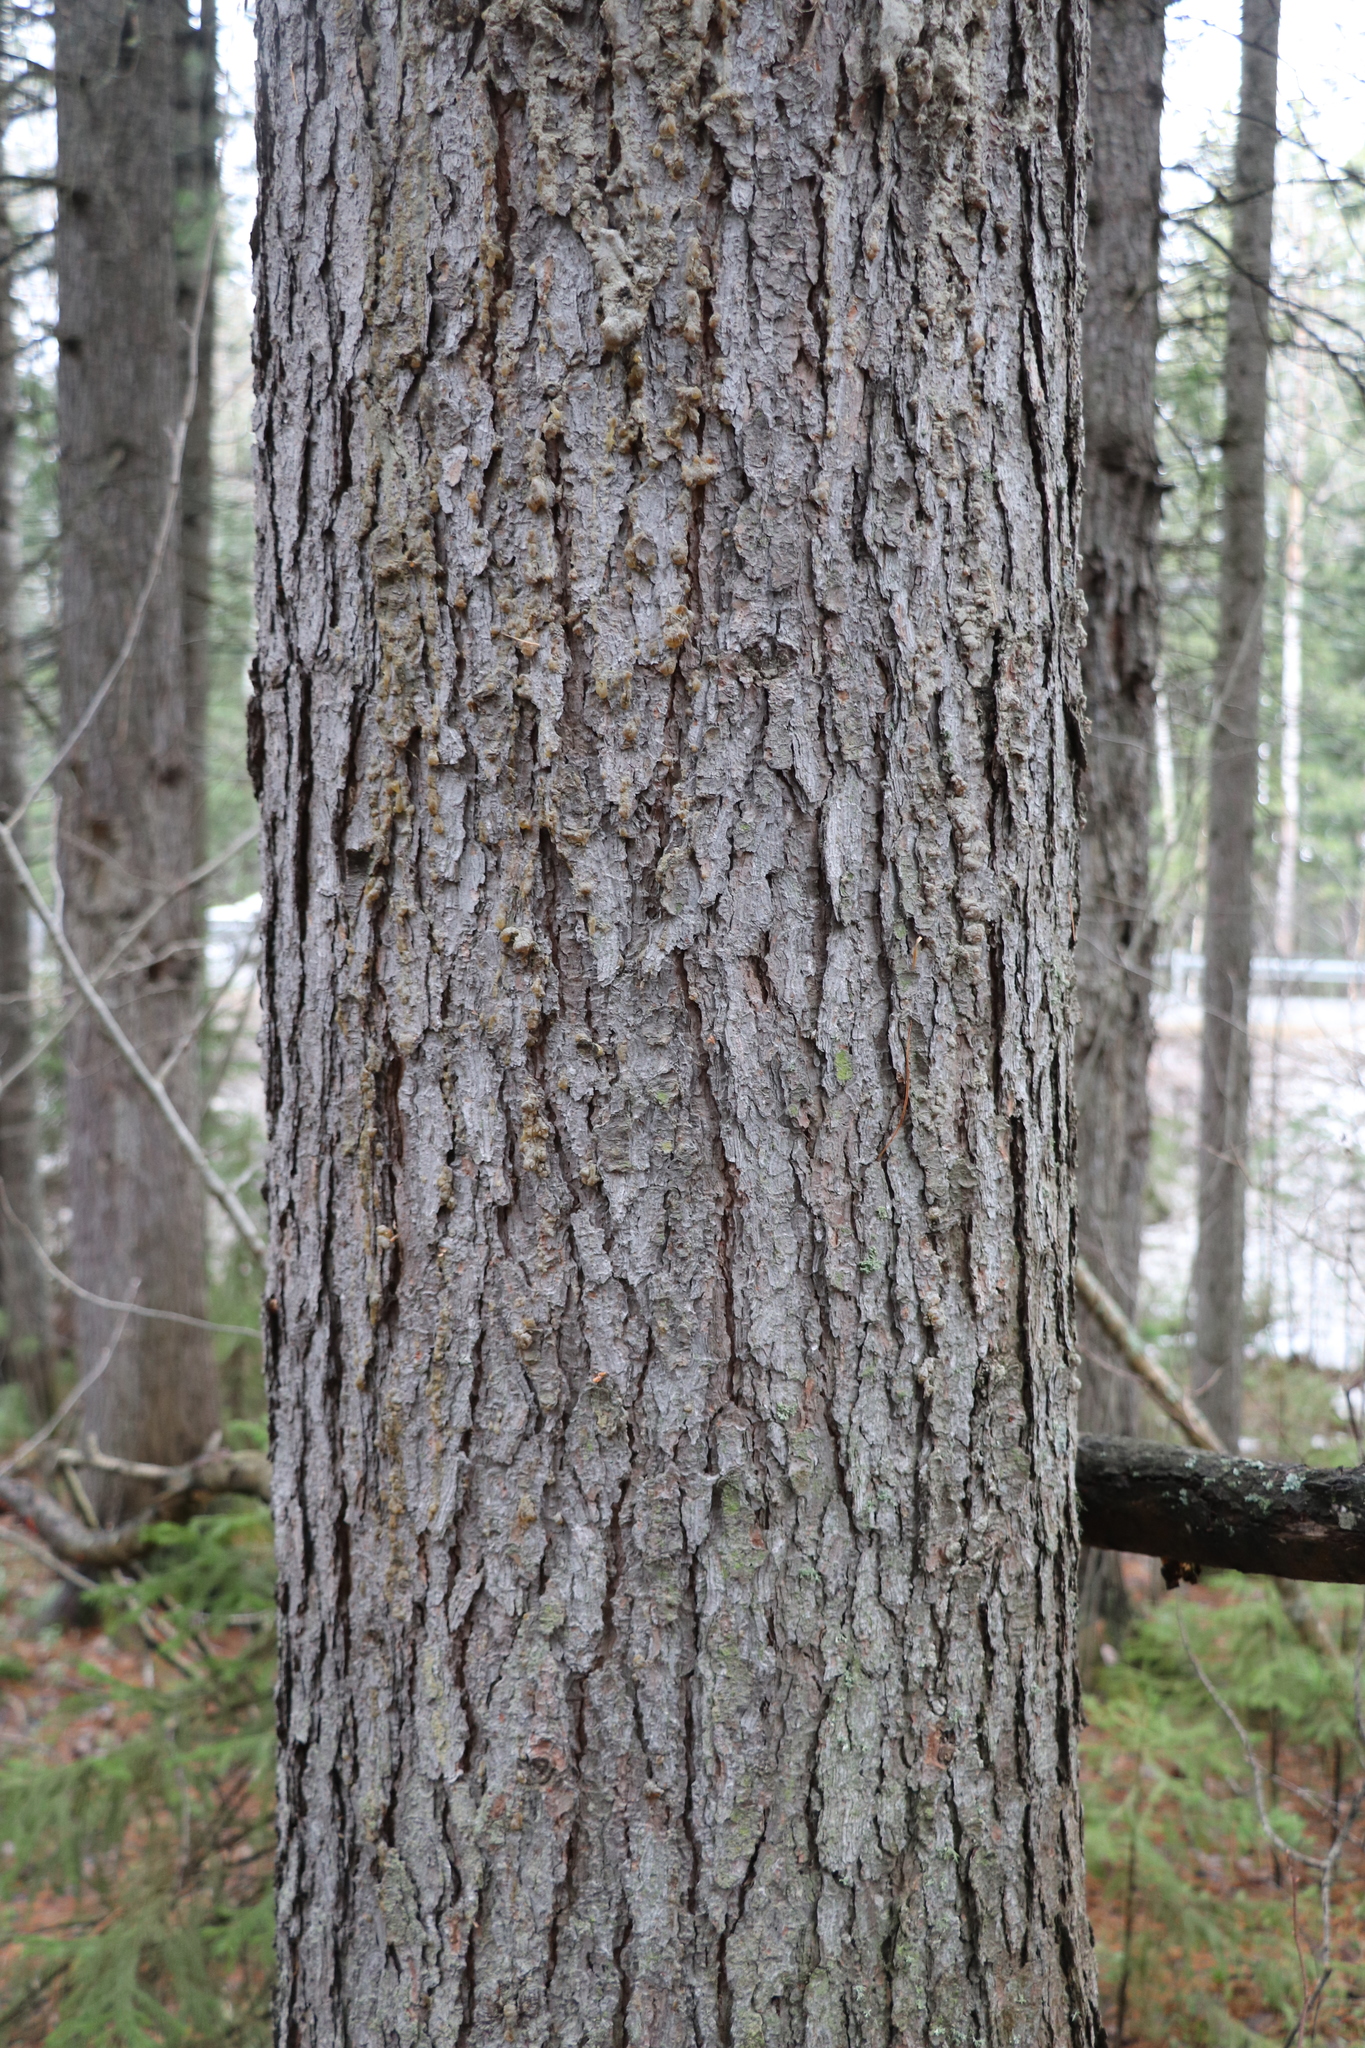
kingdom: Plantae
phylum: Tracheophyta
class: Pinopsida
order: Pinales
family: Pinaceae
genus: Pinus
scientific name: Pinus sibirica
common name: Siberian pine
